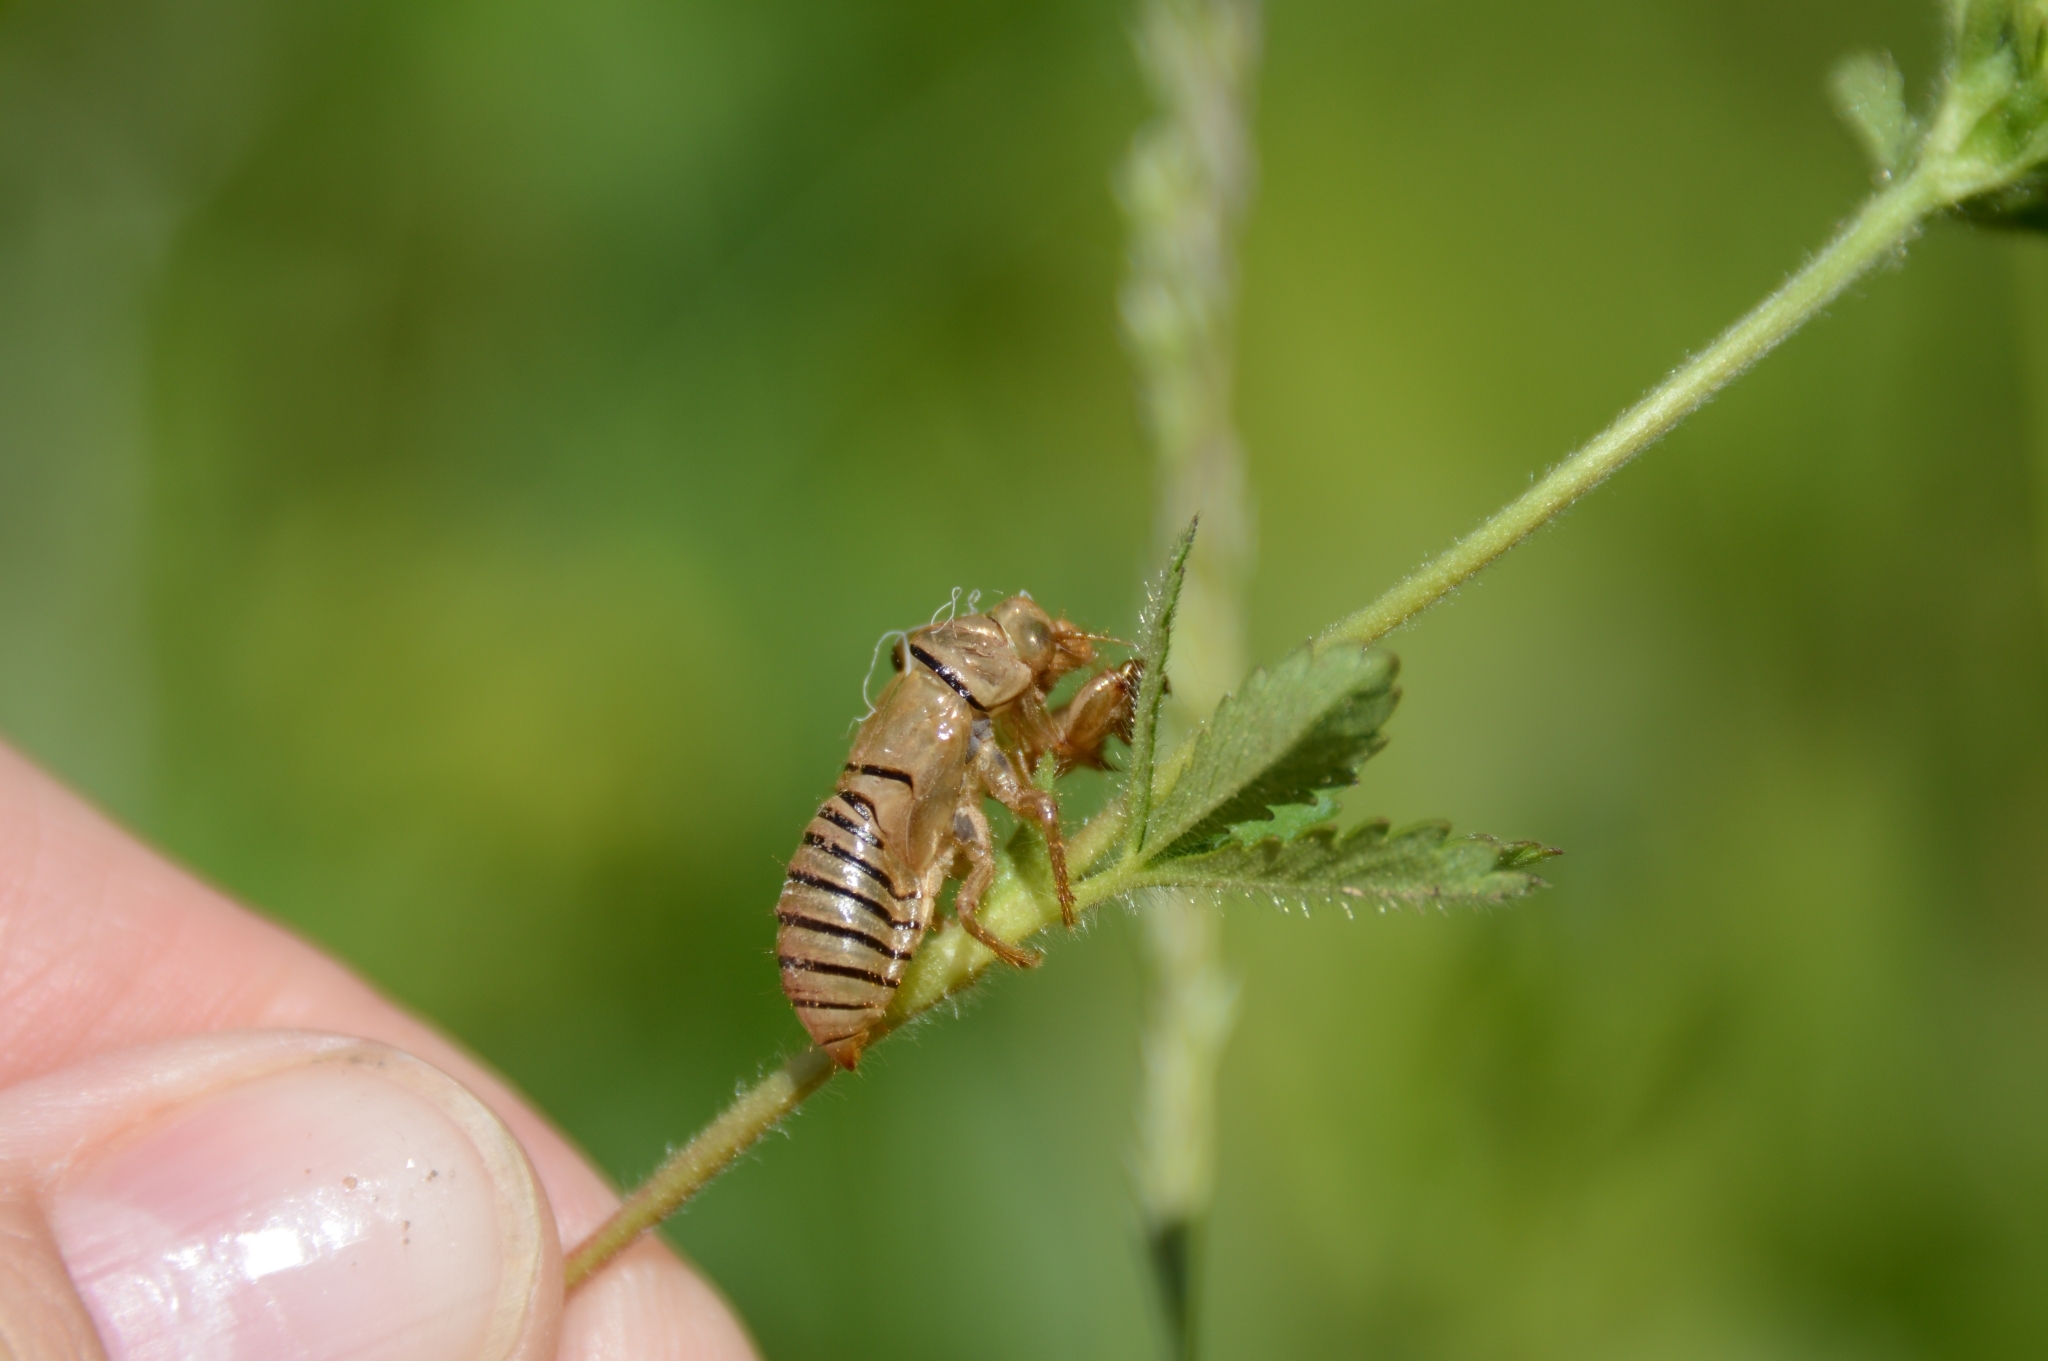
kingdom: Animalia
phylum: Arthropoda
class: Insecta
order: Hemiptera
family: Cicadidae
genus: Cicadetta
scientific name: Cicadetta montana
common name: New forest cicada
